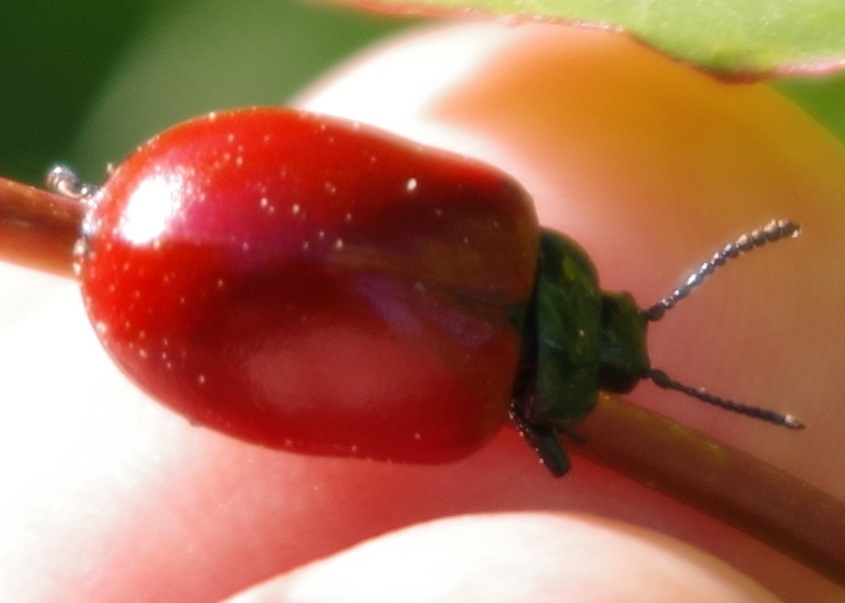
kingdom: Animalia
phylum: Arthropoda
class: Insecta
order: Coleoptera
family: Chrysomelidae
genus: Chrysomela
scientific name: Chrysomela populi
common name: Red poplar leaf beetle
